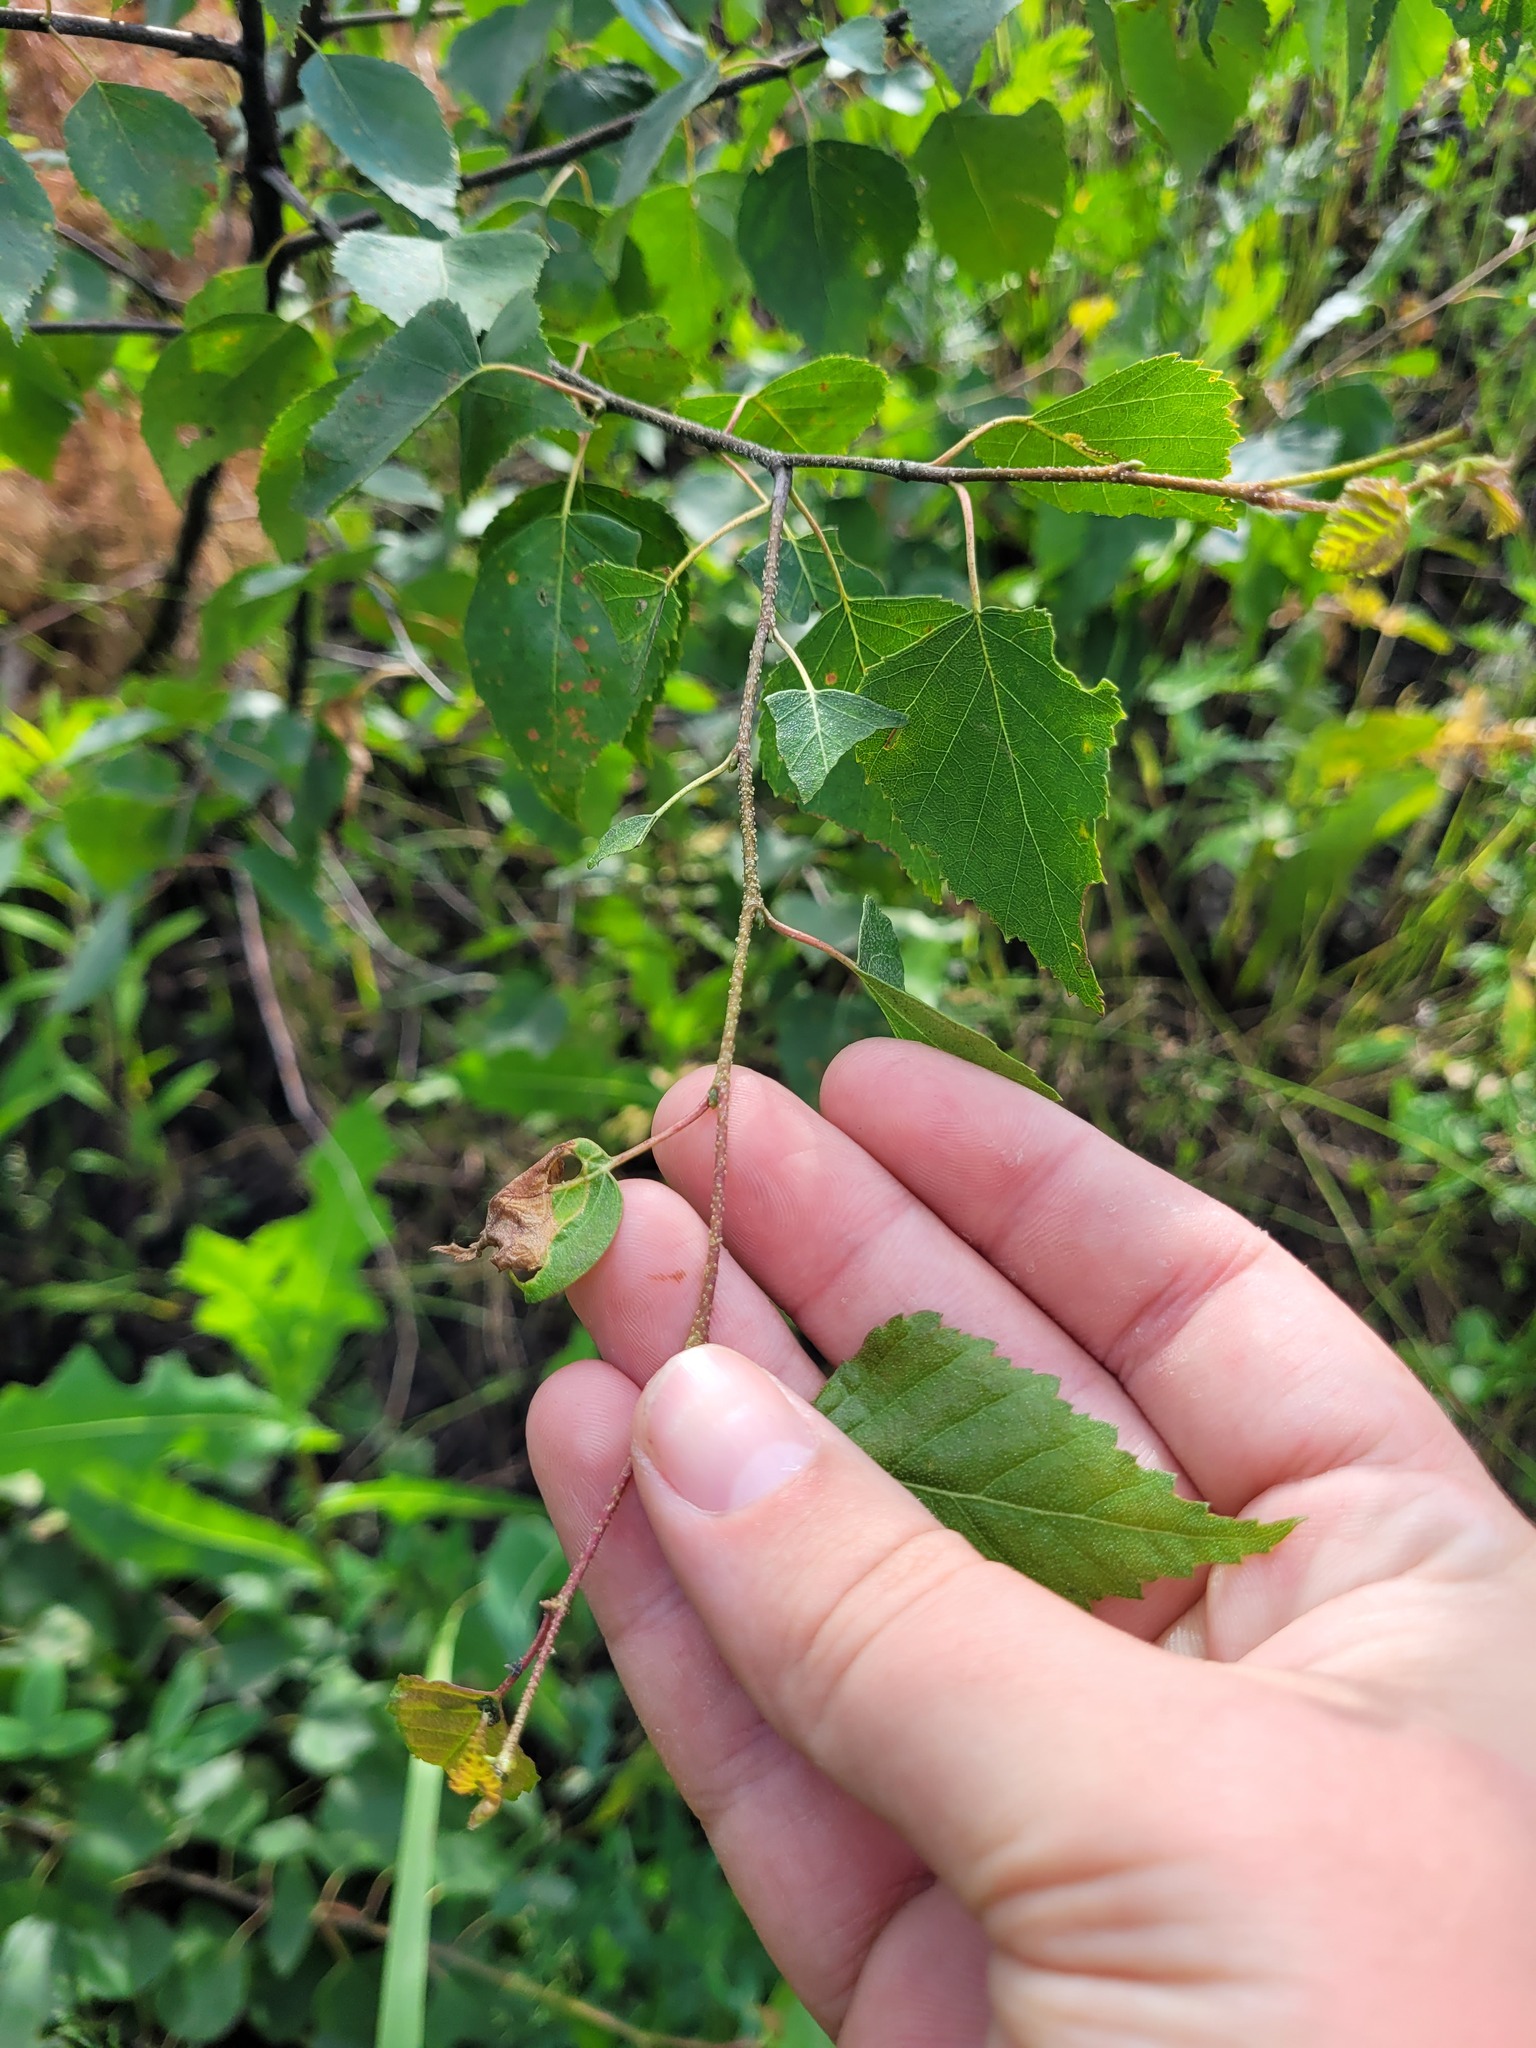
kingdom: Plantae
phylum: Tracheophyta
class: Magnoliopsida
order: Fagales
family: Betulaceae
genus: Betula
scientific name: Betula pendula
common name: Silver birch
